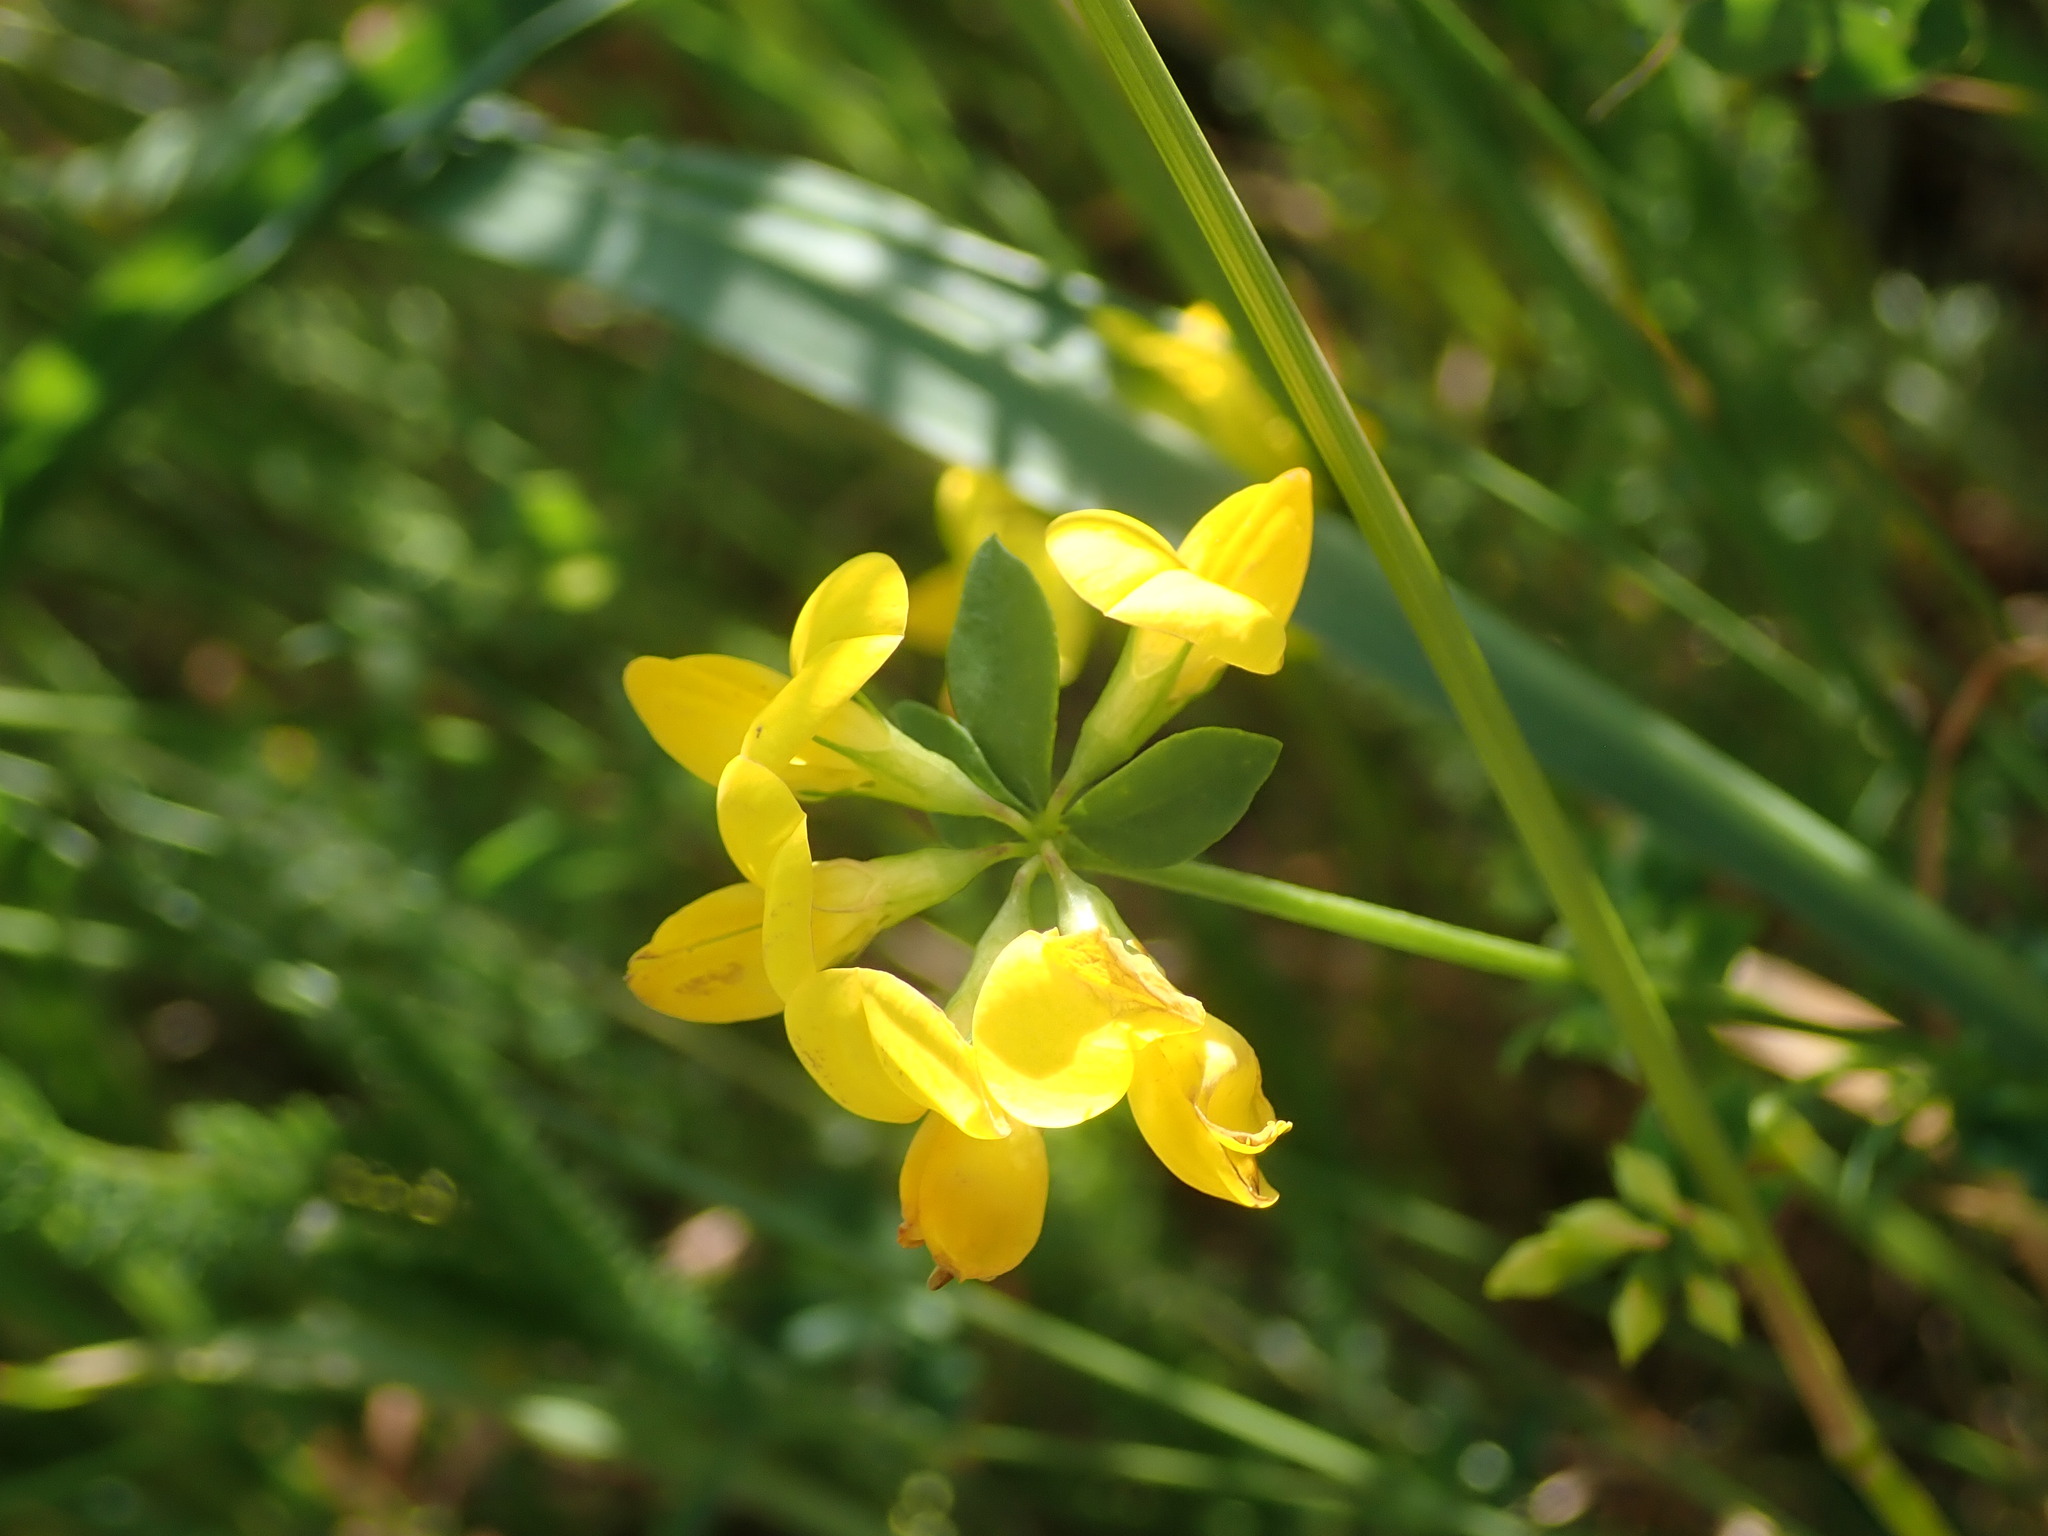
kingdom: Plantae
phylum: Tracheophyta
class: Magnoliopsida
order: Fabales
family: Fabaceae
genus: Lotus
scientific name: Lotus corniculatus
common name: Common bird's-foot-trefoil
